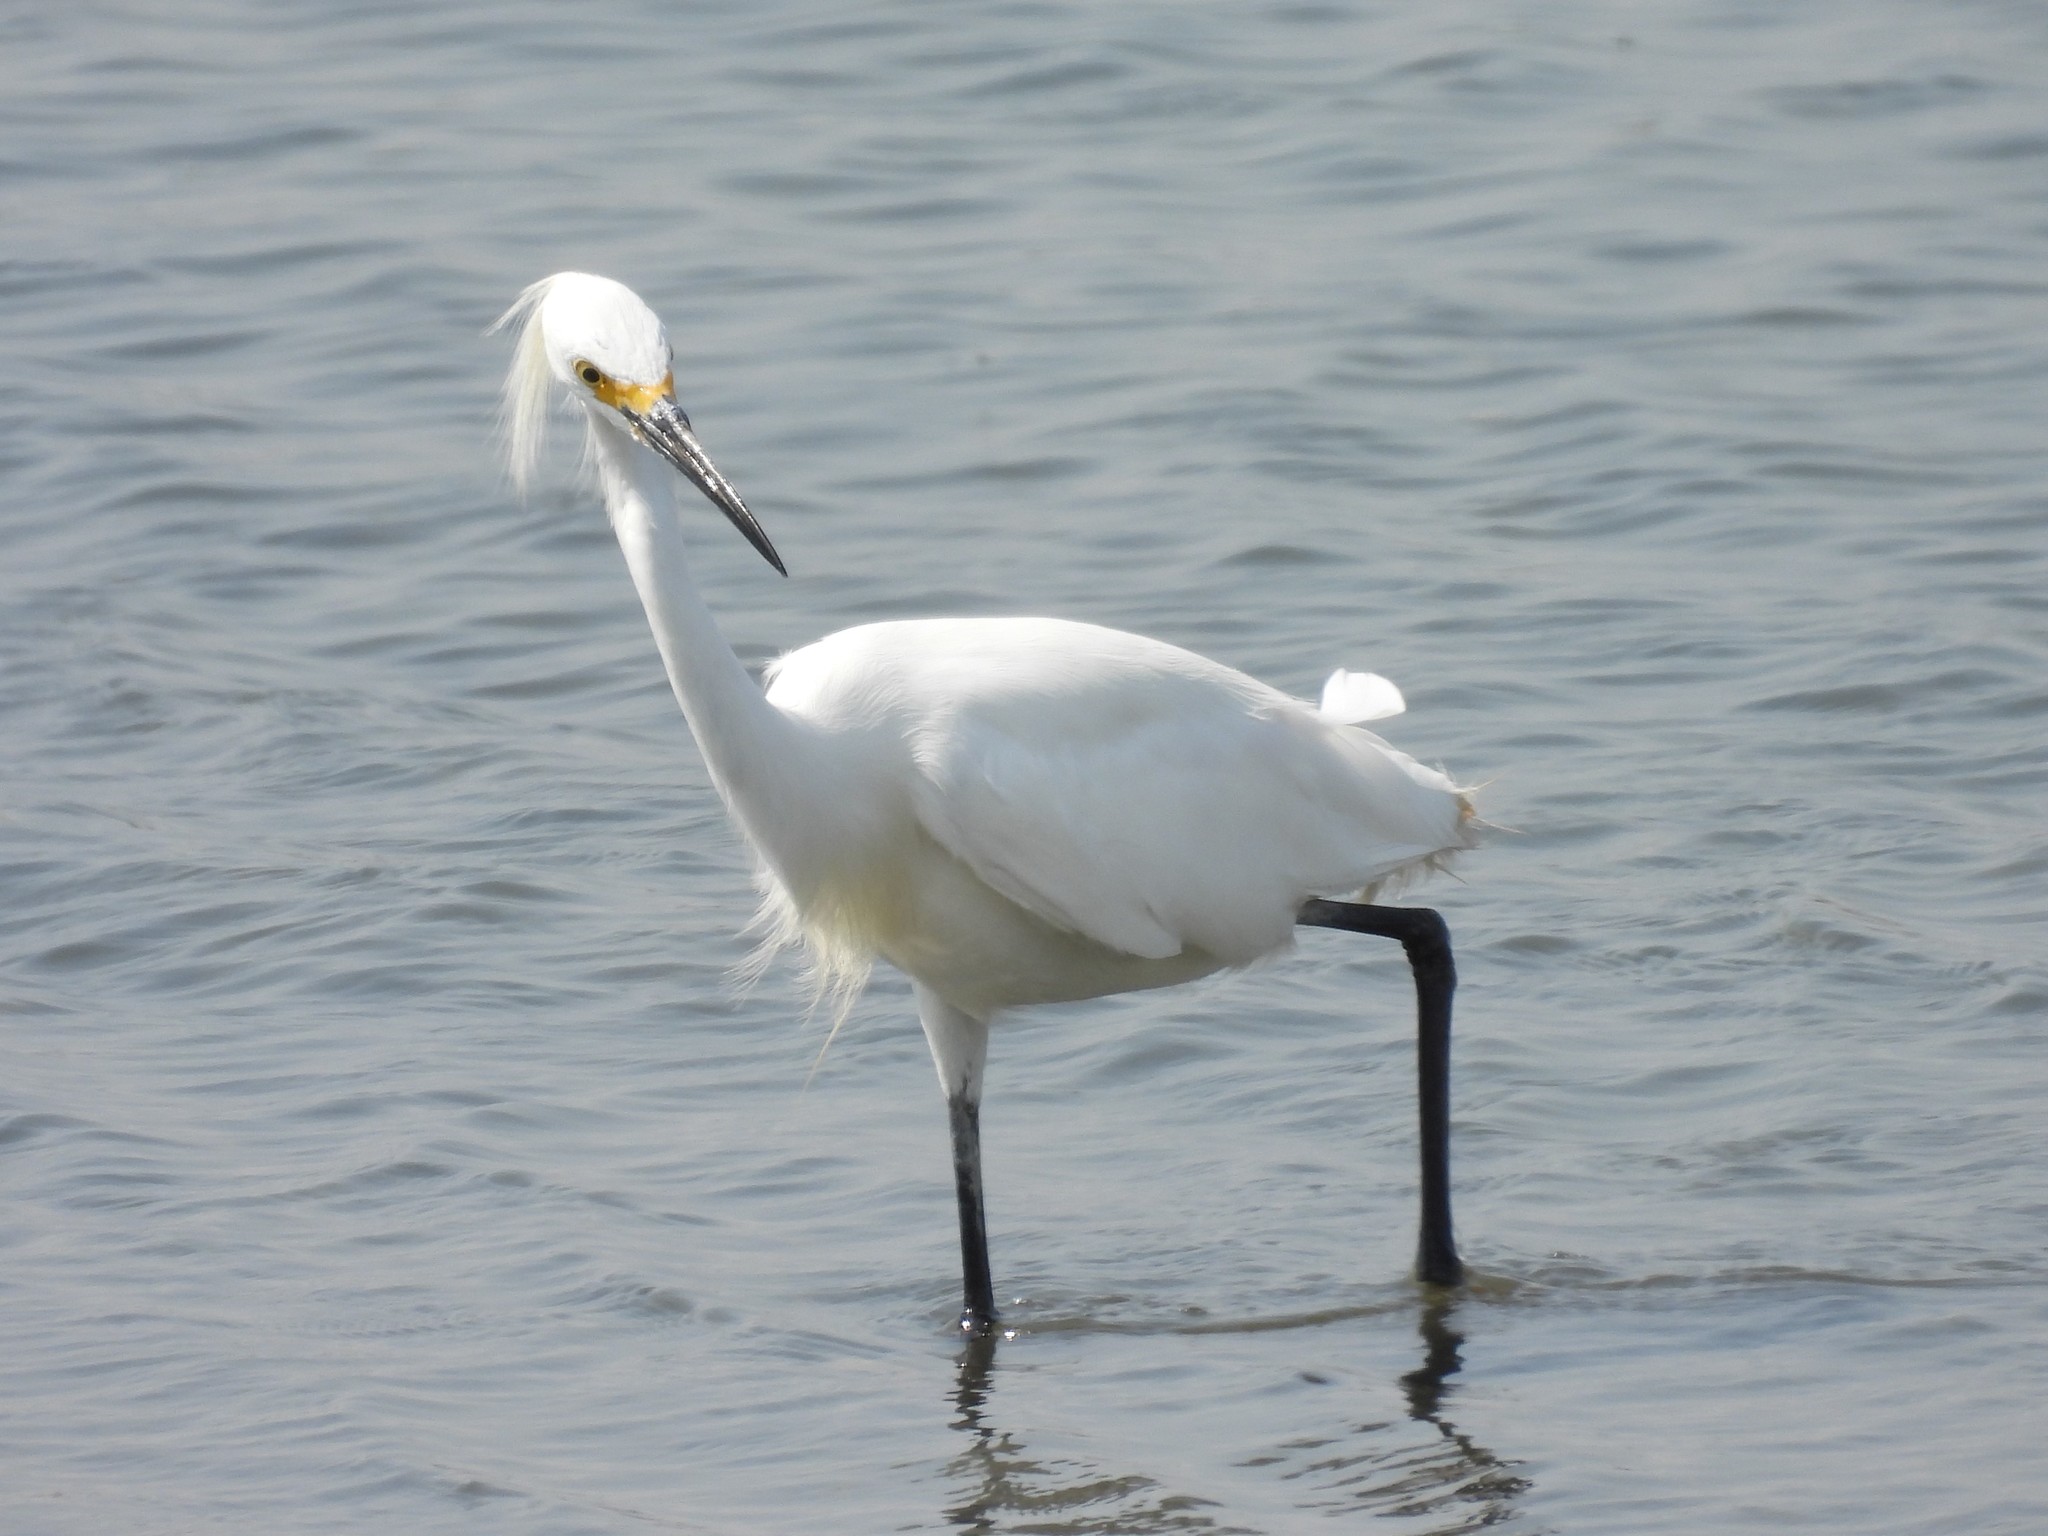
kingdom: Animalia
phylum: Chordata
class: Aves
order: Pelecaniformes
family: Ardeidae
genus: Egretta
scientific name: Egretta thula
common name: Snowy egret
